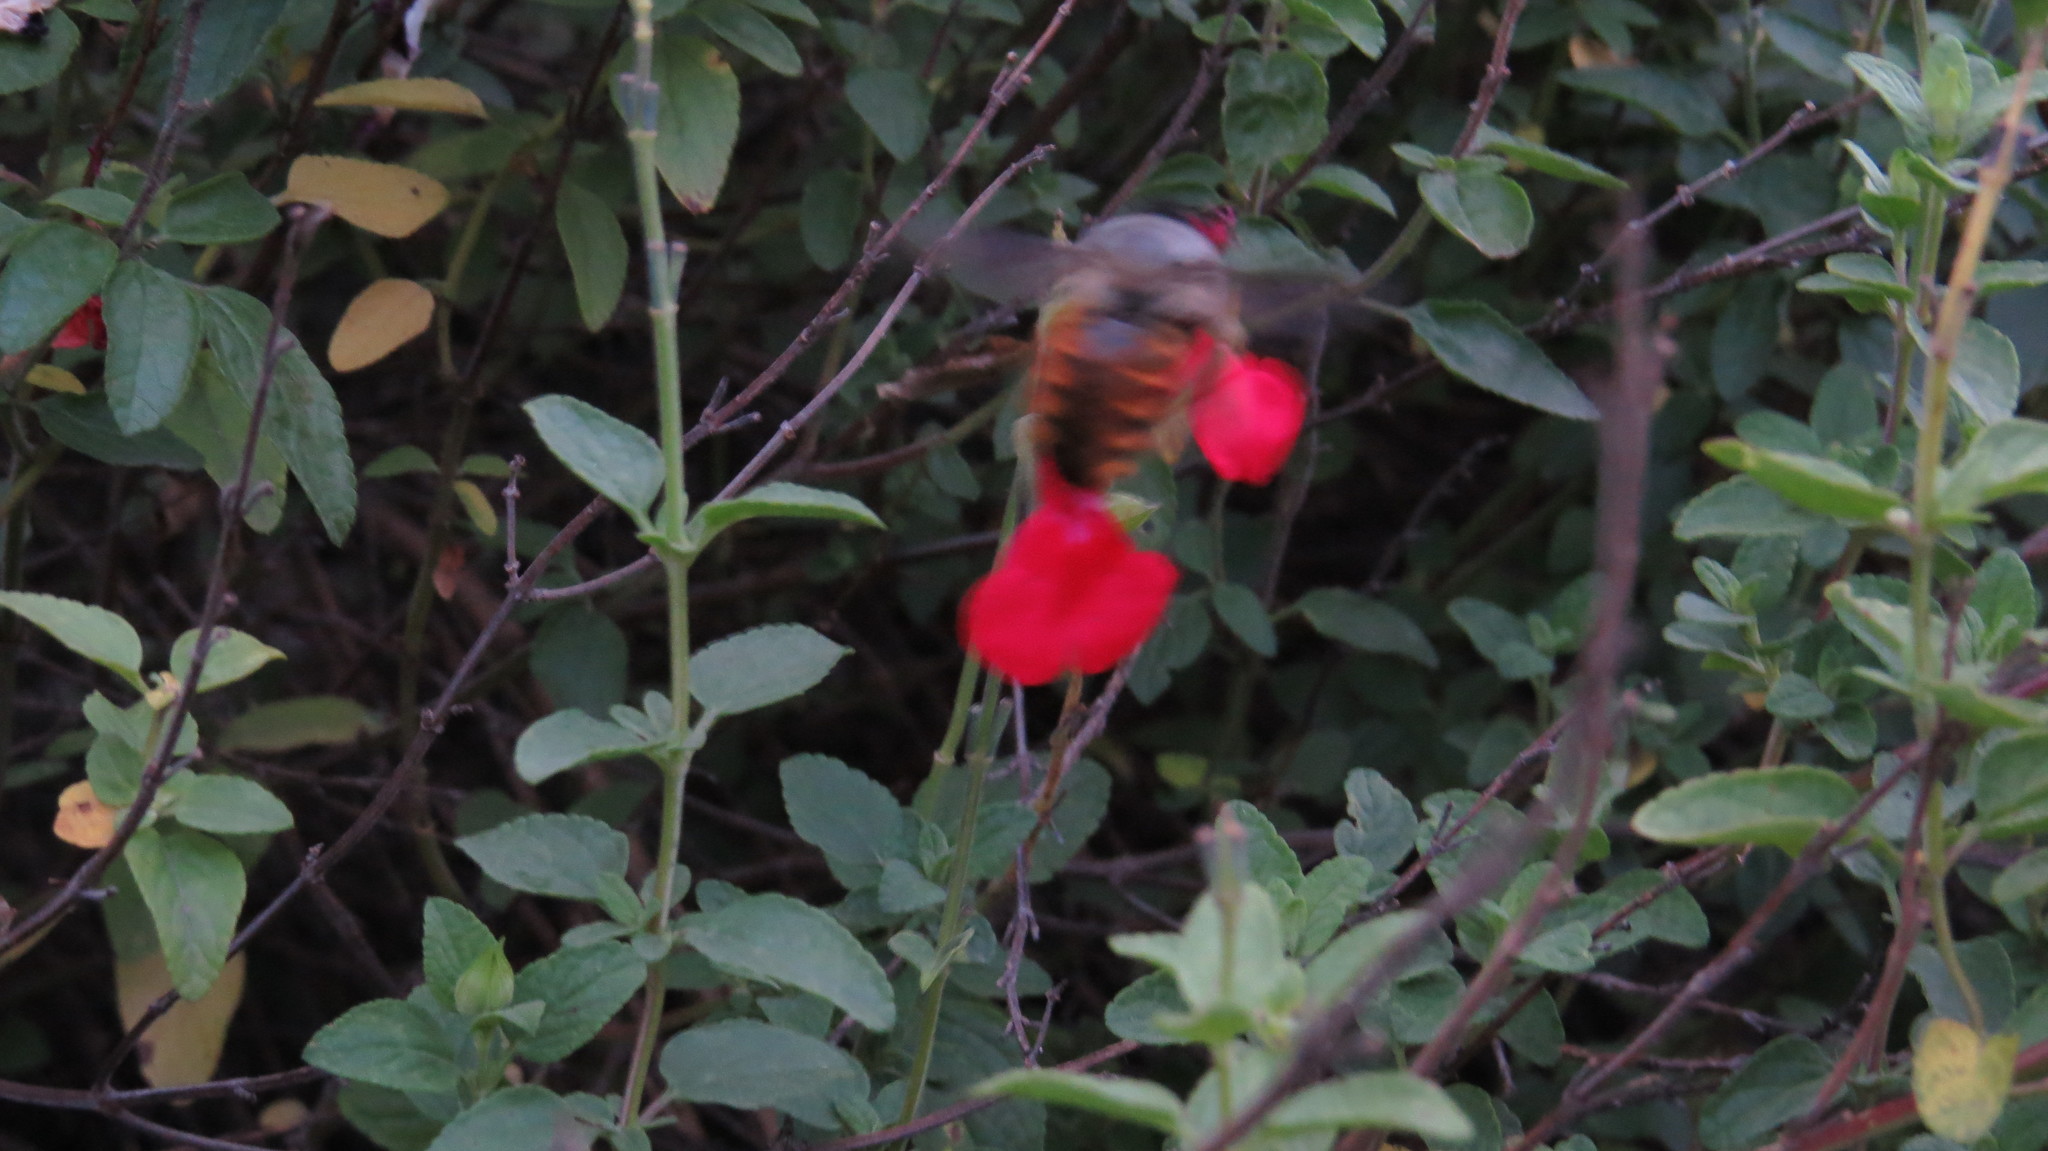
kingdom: Animalia
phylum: Arthropoda
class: Insecta
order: Hymenoptera
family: Apidae
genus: Xylocopa
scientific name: Xylocopa tabaniformis
